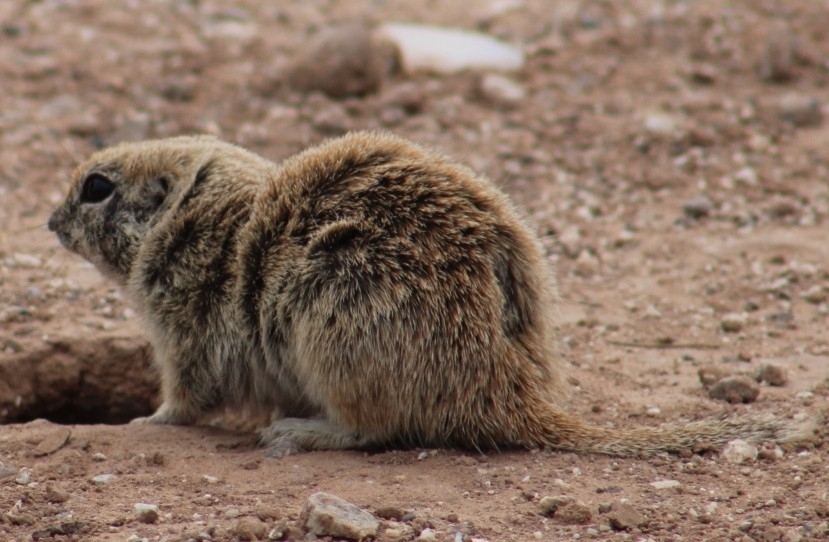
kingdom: Animalia
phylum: Chordata
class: Mammalia
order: Rodentia
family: Sciuridae
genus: Xerospermophilus
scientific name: Xerospermophilus tereticaudus
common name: Round-tailed ground squirrel
